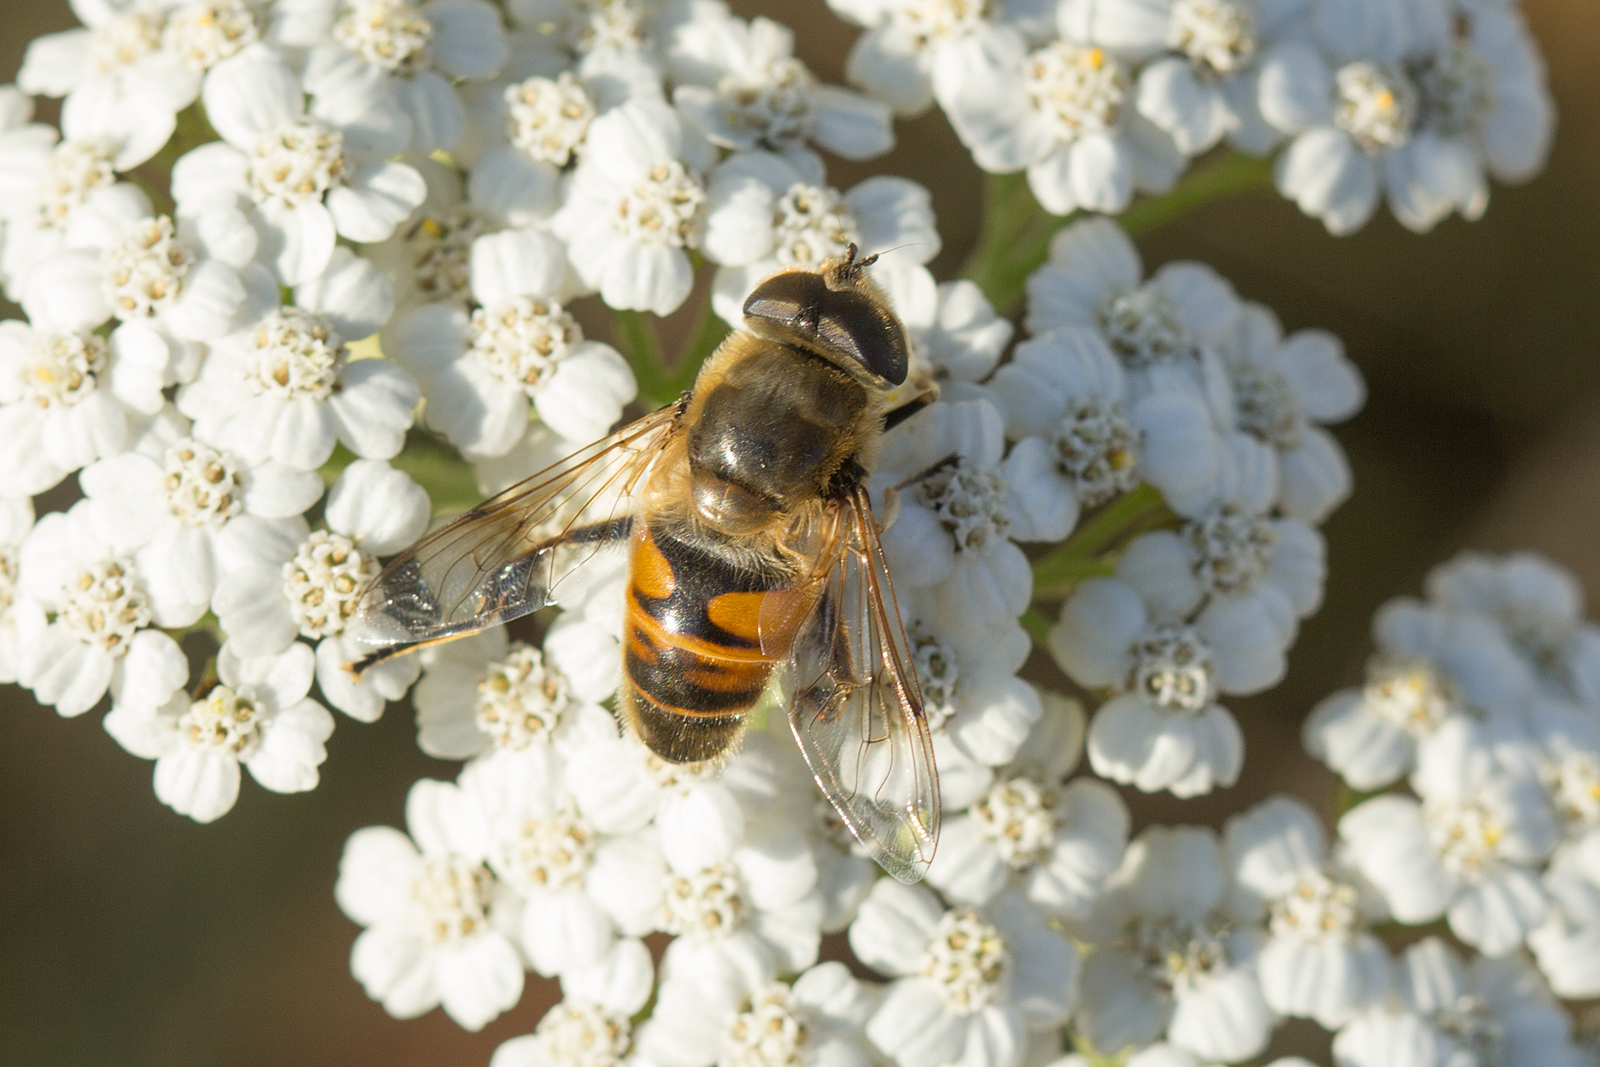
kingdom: Animalia
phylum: Arthropoda
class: Insecta
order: Diptera
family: Syrphidae
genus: Eristalis
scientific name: Eristalis tenax
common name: Drone fly
